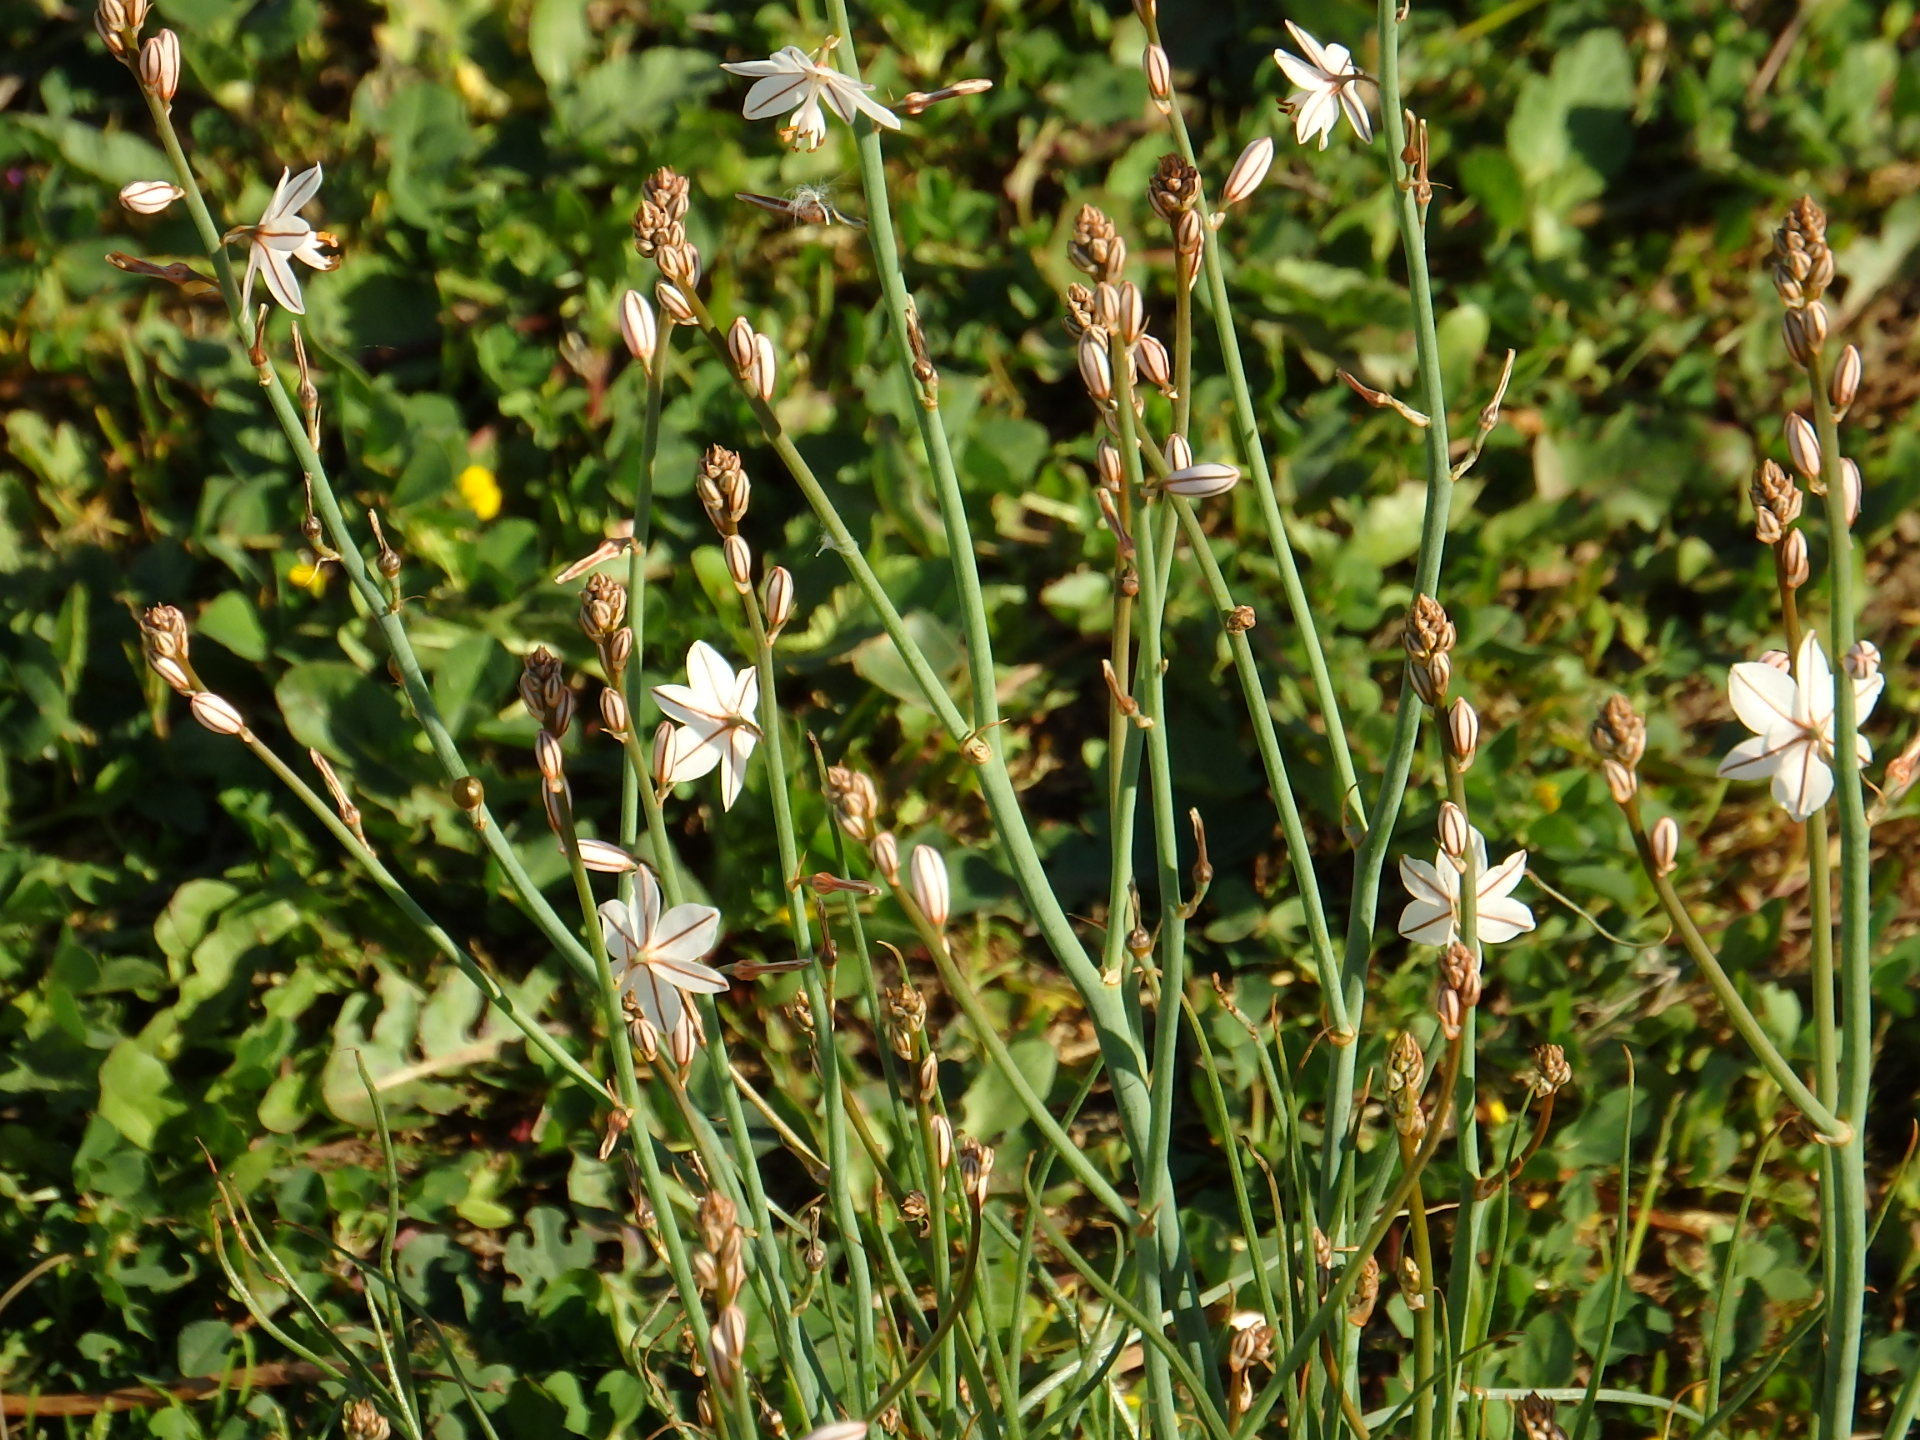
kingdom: Plantae
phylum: Tracheophyta
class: Liliopsida
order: Asparagales
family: Asphodelaceae
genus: Asphodelus
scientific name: Asphodelus fistulosus
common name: Onionweed
